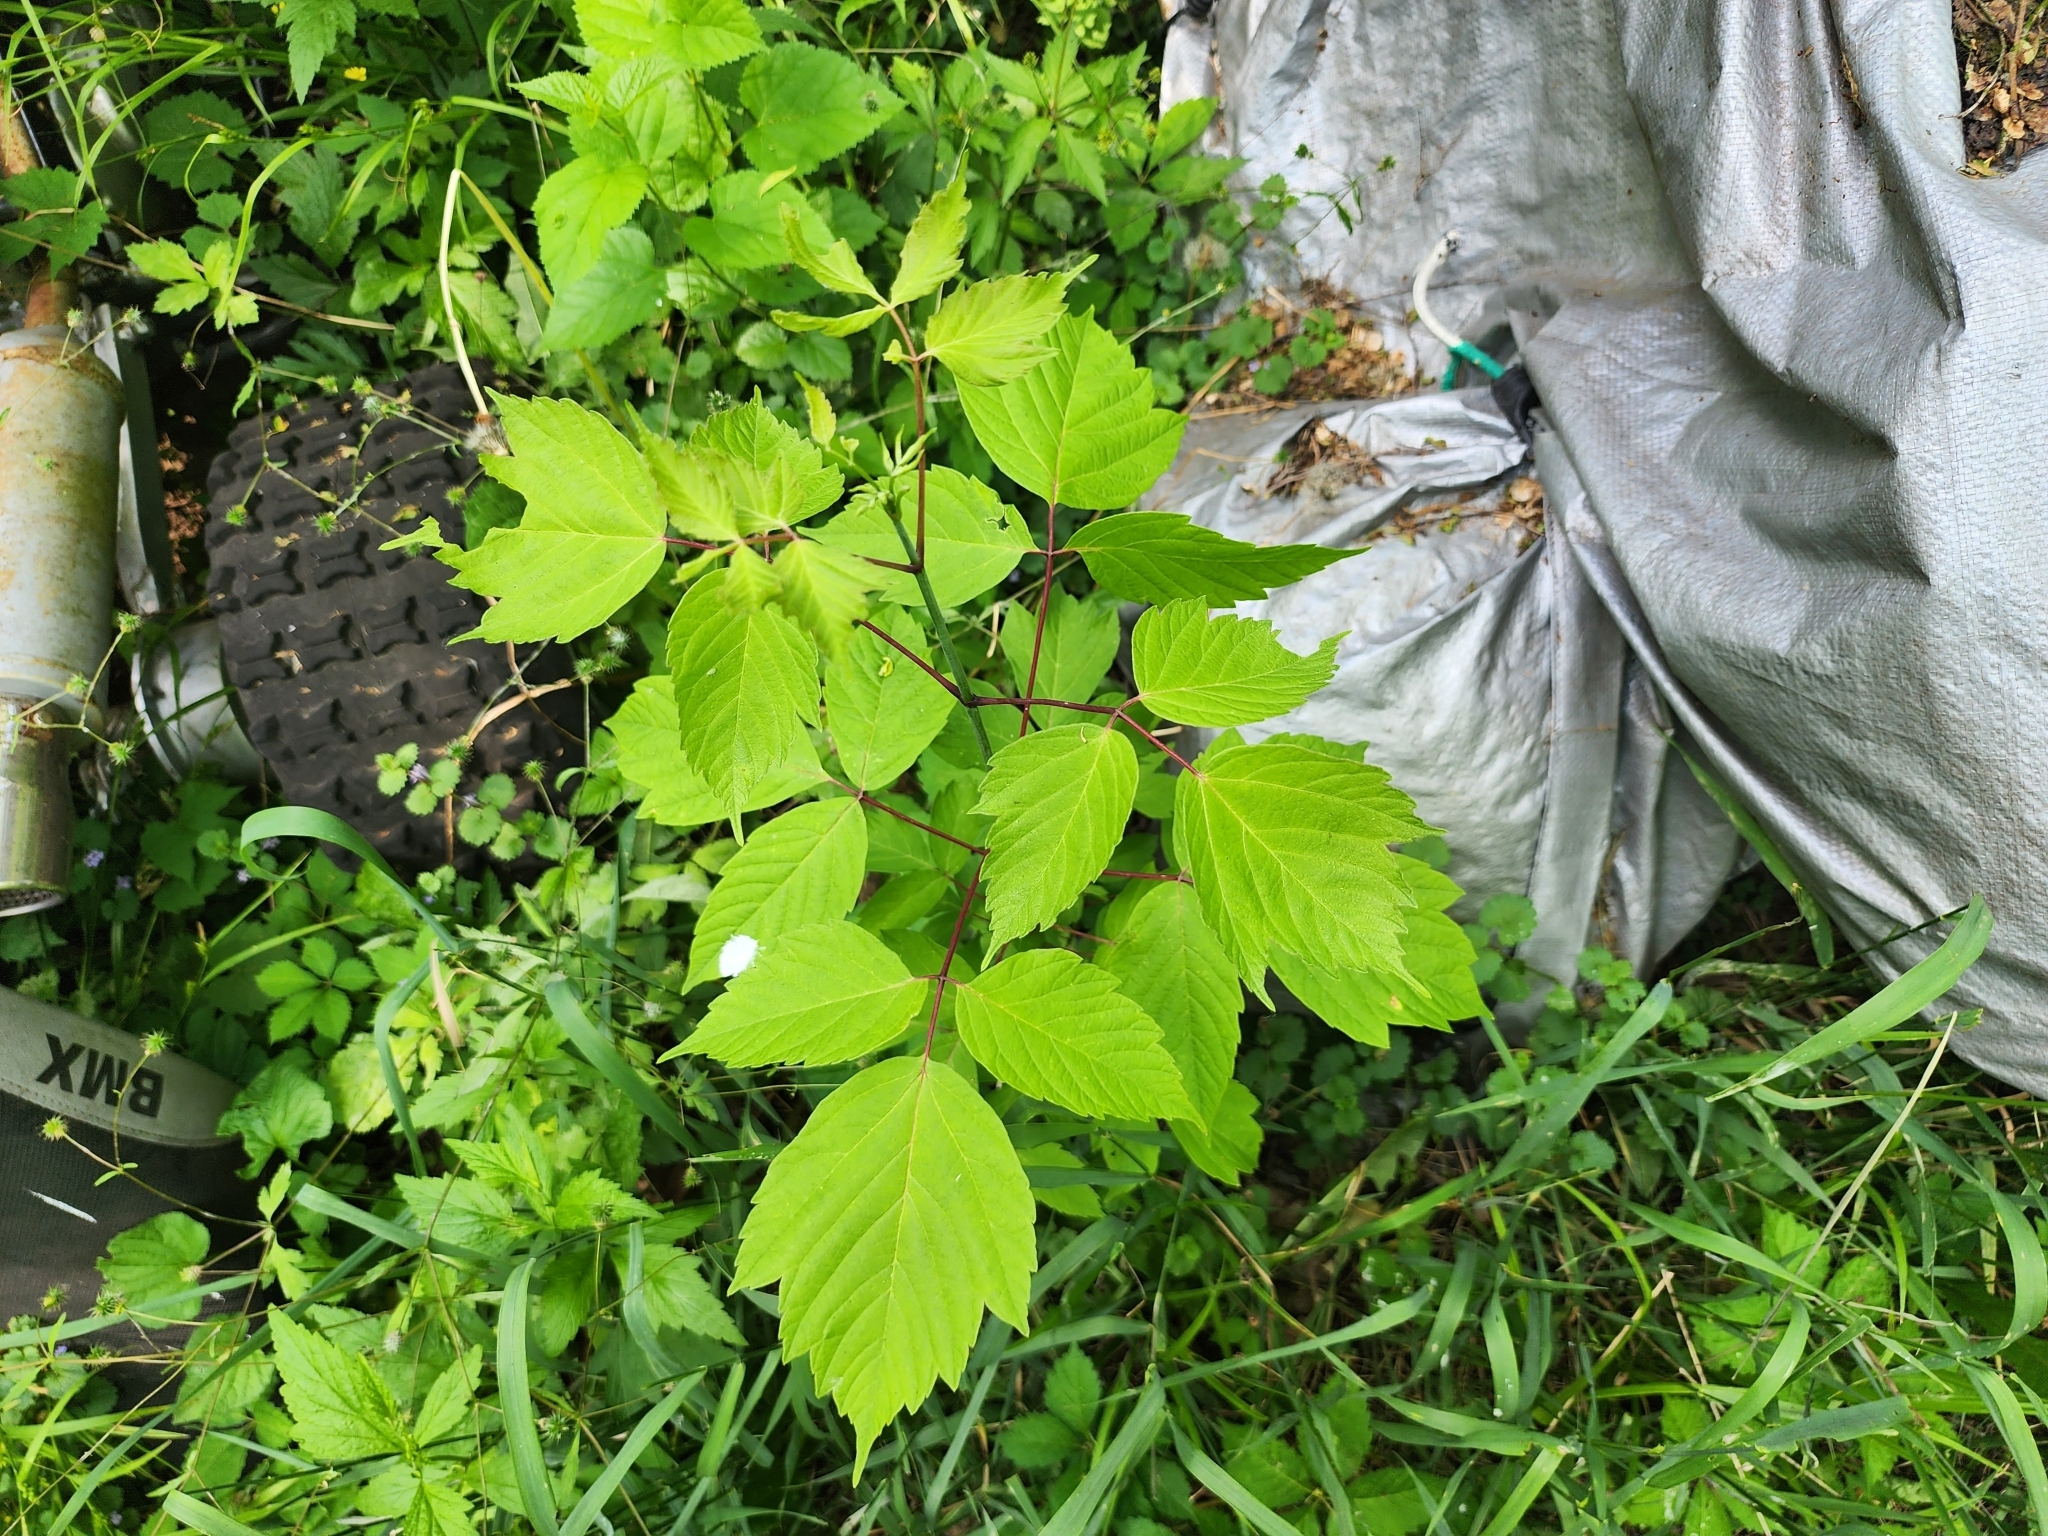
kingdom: Plantae
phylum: Tracheophyta
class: Magnoliopsida
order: Sapindales
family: Sapindaceae
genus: Acer
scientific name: Acer negundo
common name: Ashleaf maple
